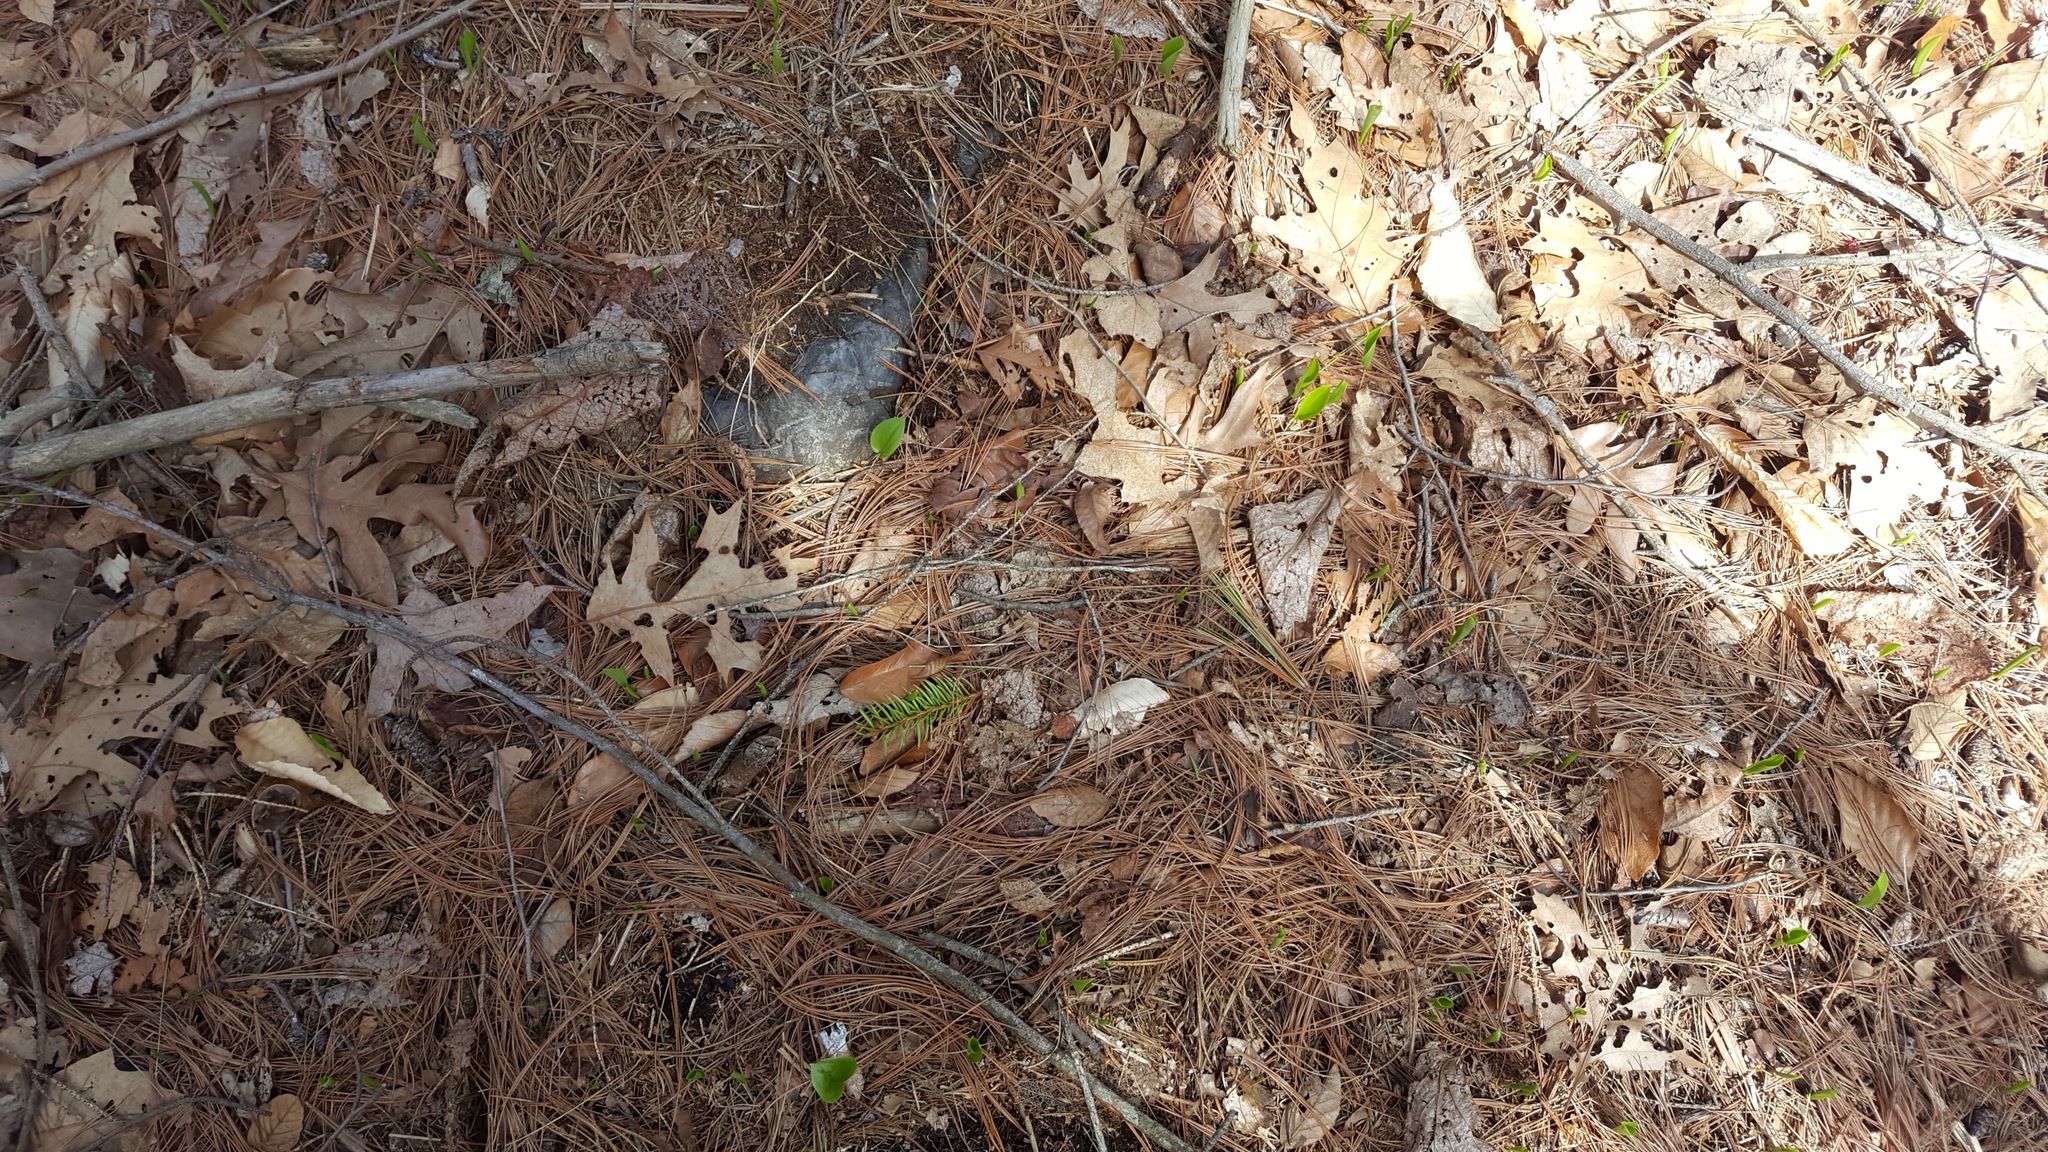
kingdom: Plantae
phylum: Tracheophyta
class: Liliopsida
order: Asparagales
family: Asparagaceae
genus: Maianthemum
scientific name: Maianthemum canadense
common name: False lily-of-the-valley
